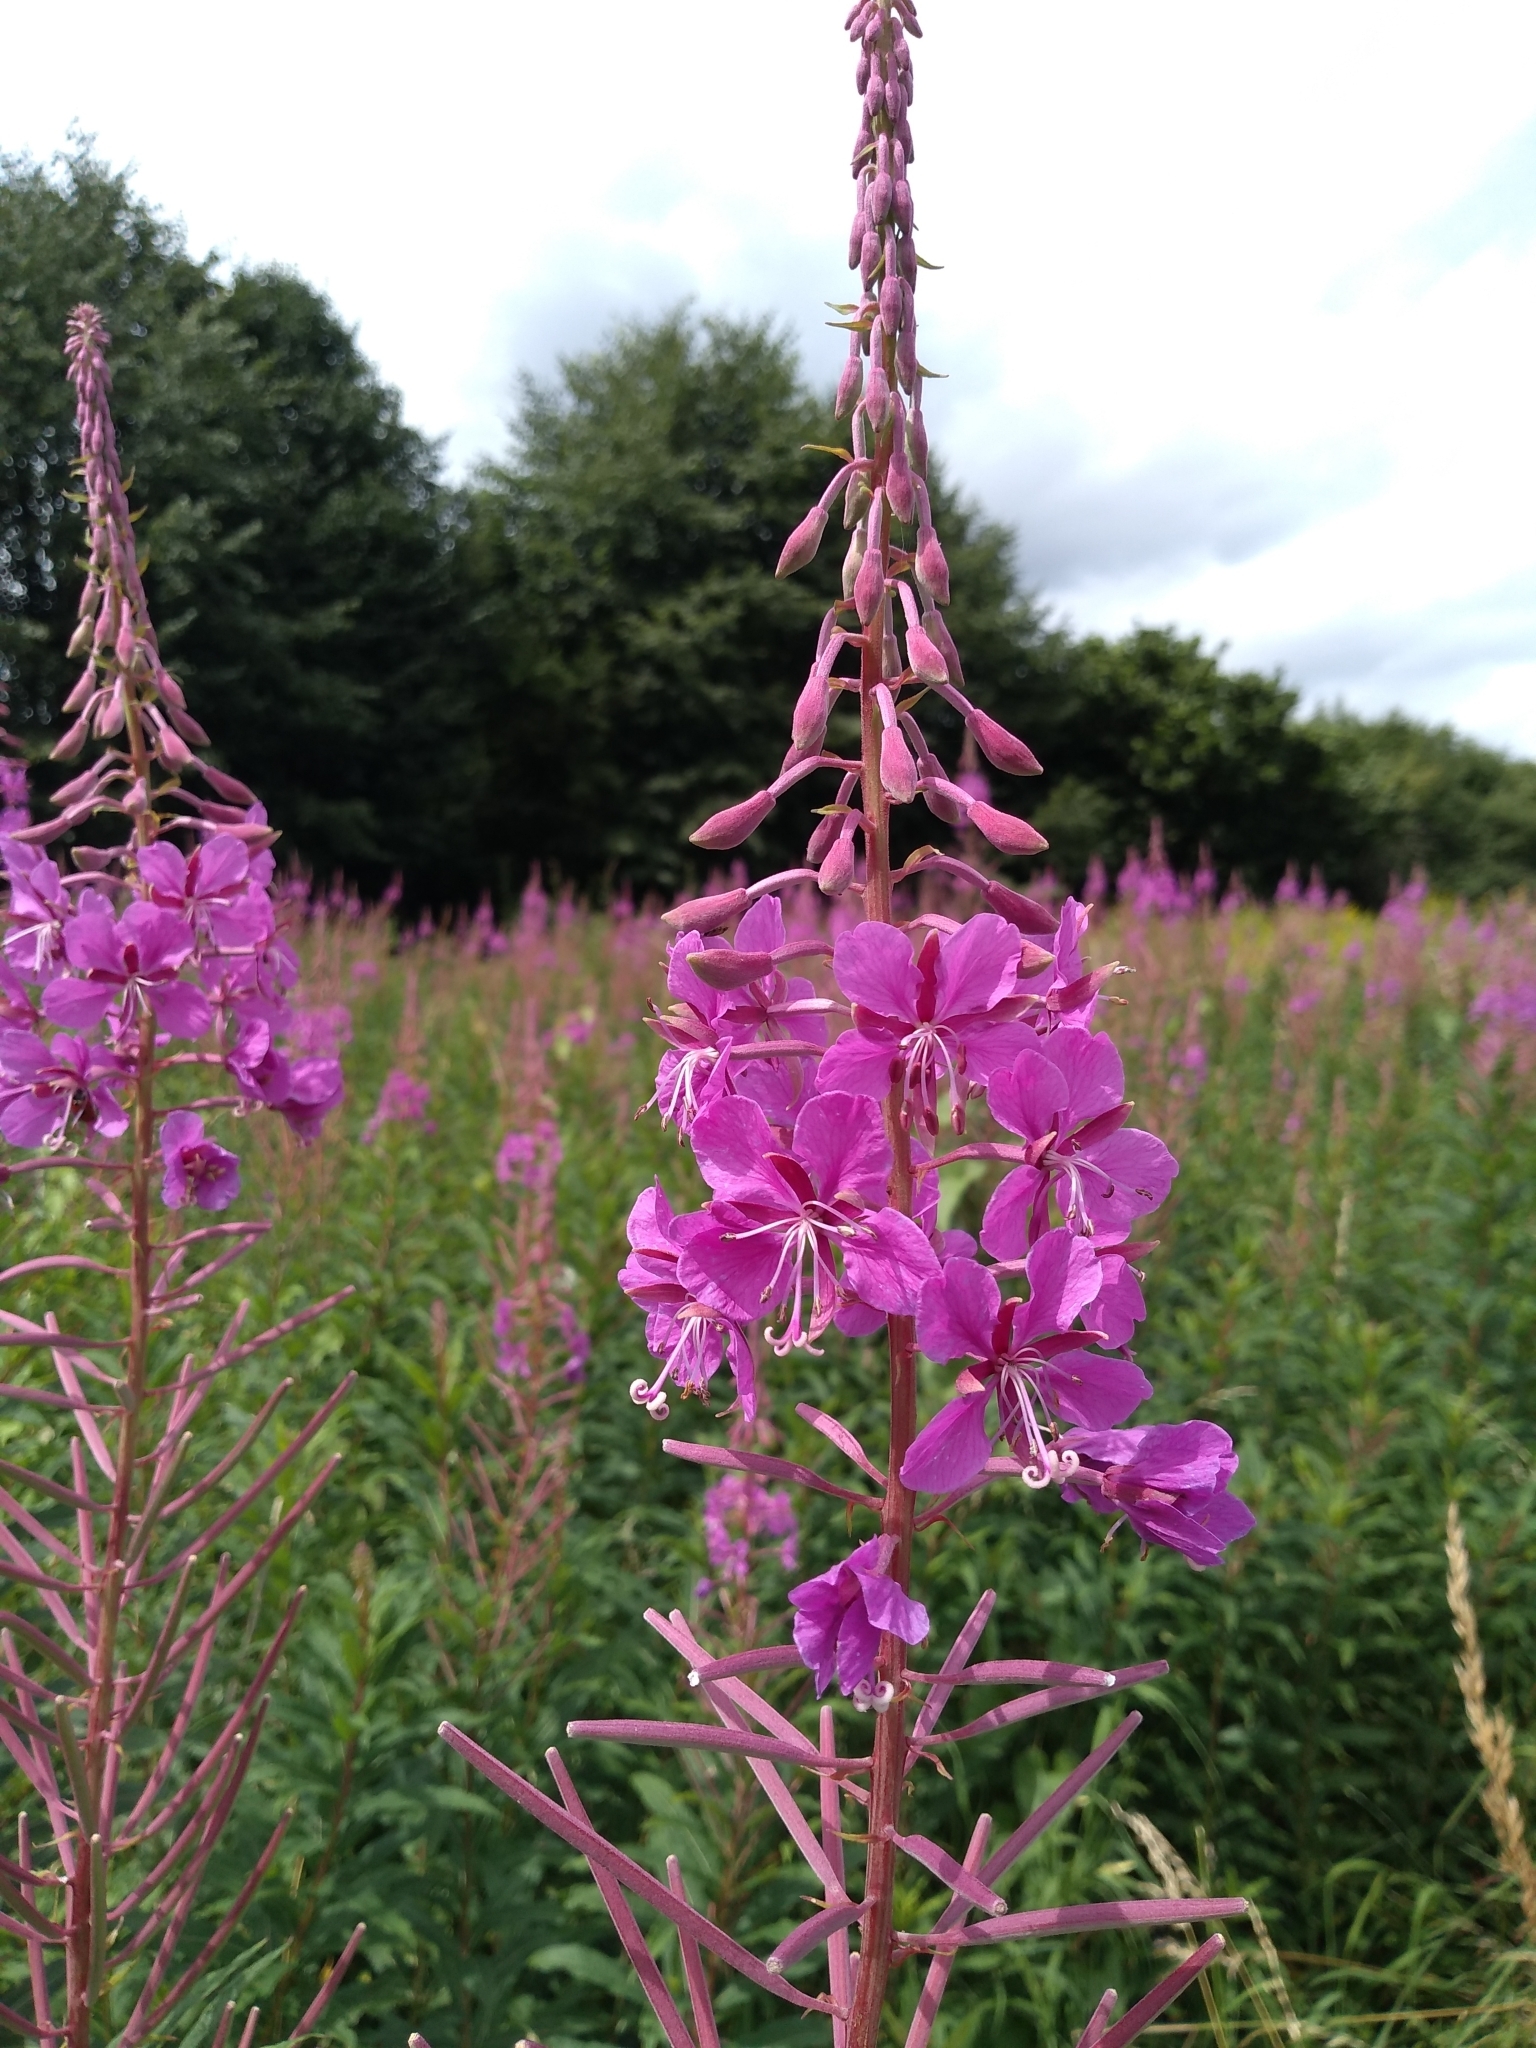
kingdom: Plantae
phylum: Tracheophyta
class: Magnoliopsida
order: Myrtales
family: Onagraceae
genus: Chamaenerion
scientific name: Chamaenerion angustifolium
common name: Fireweed
